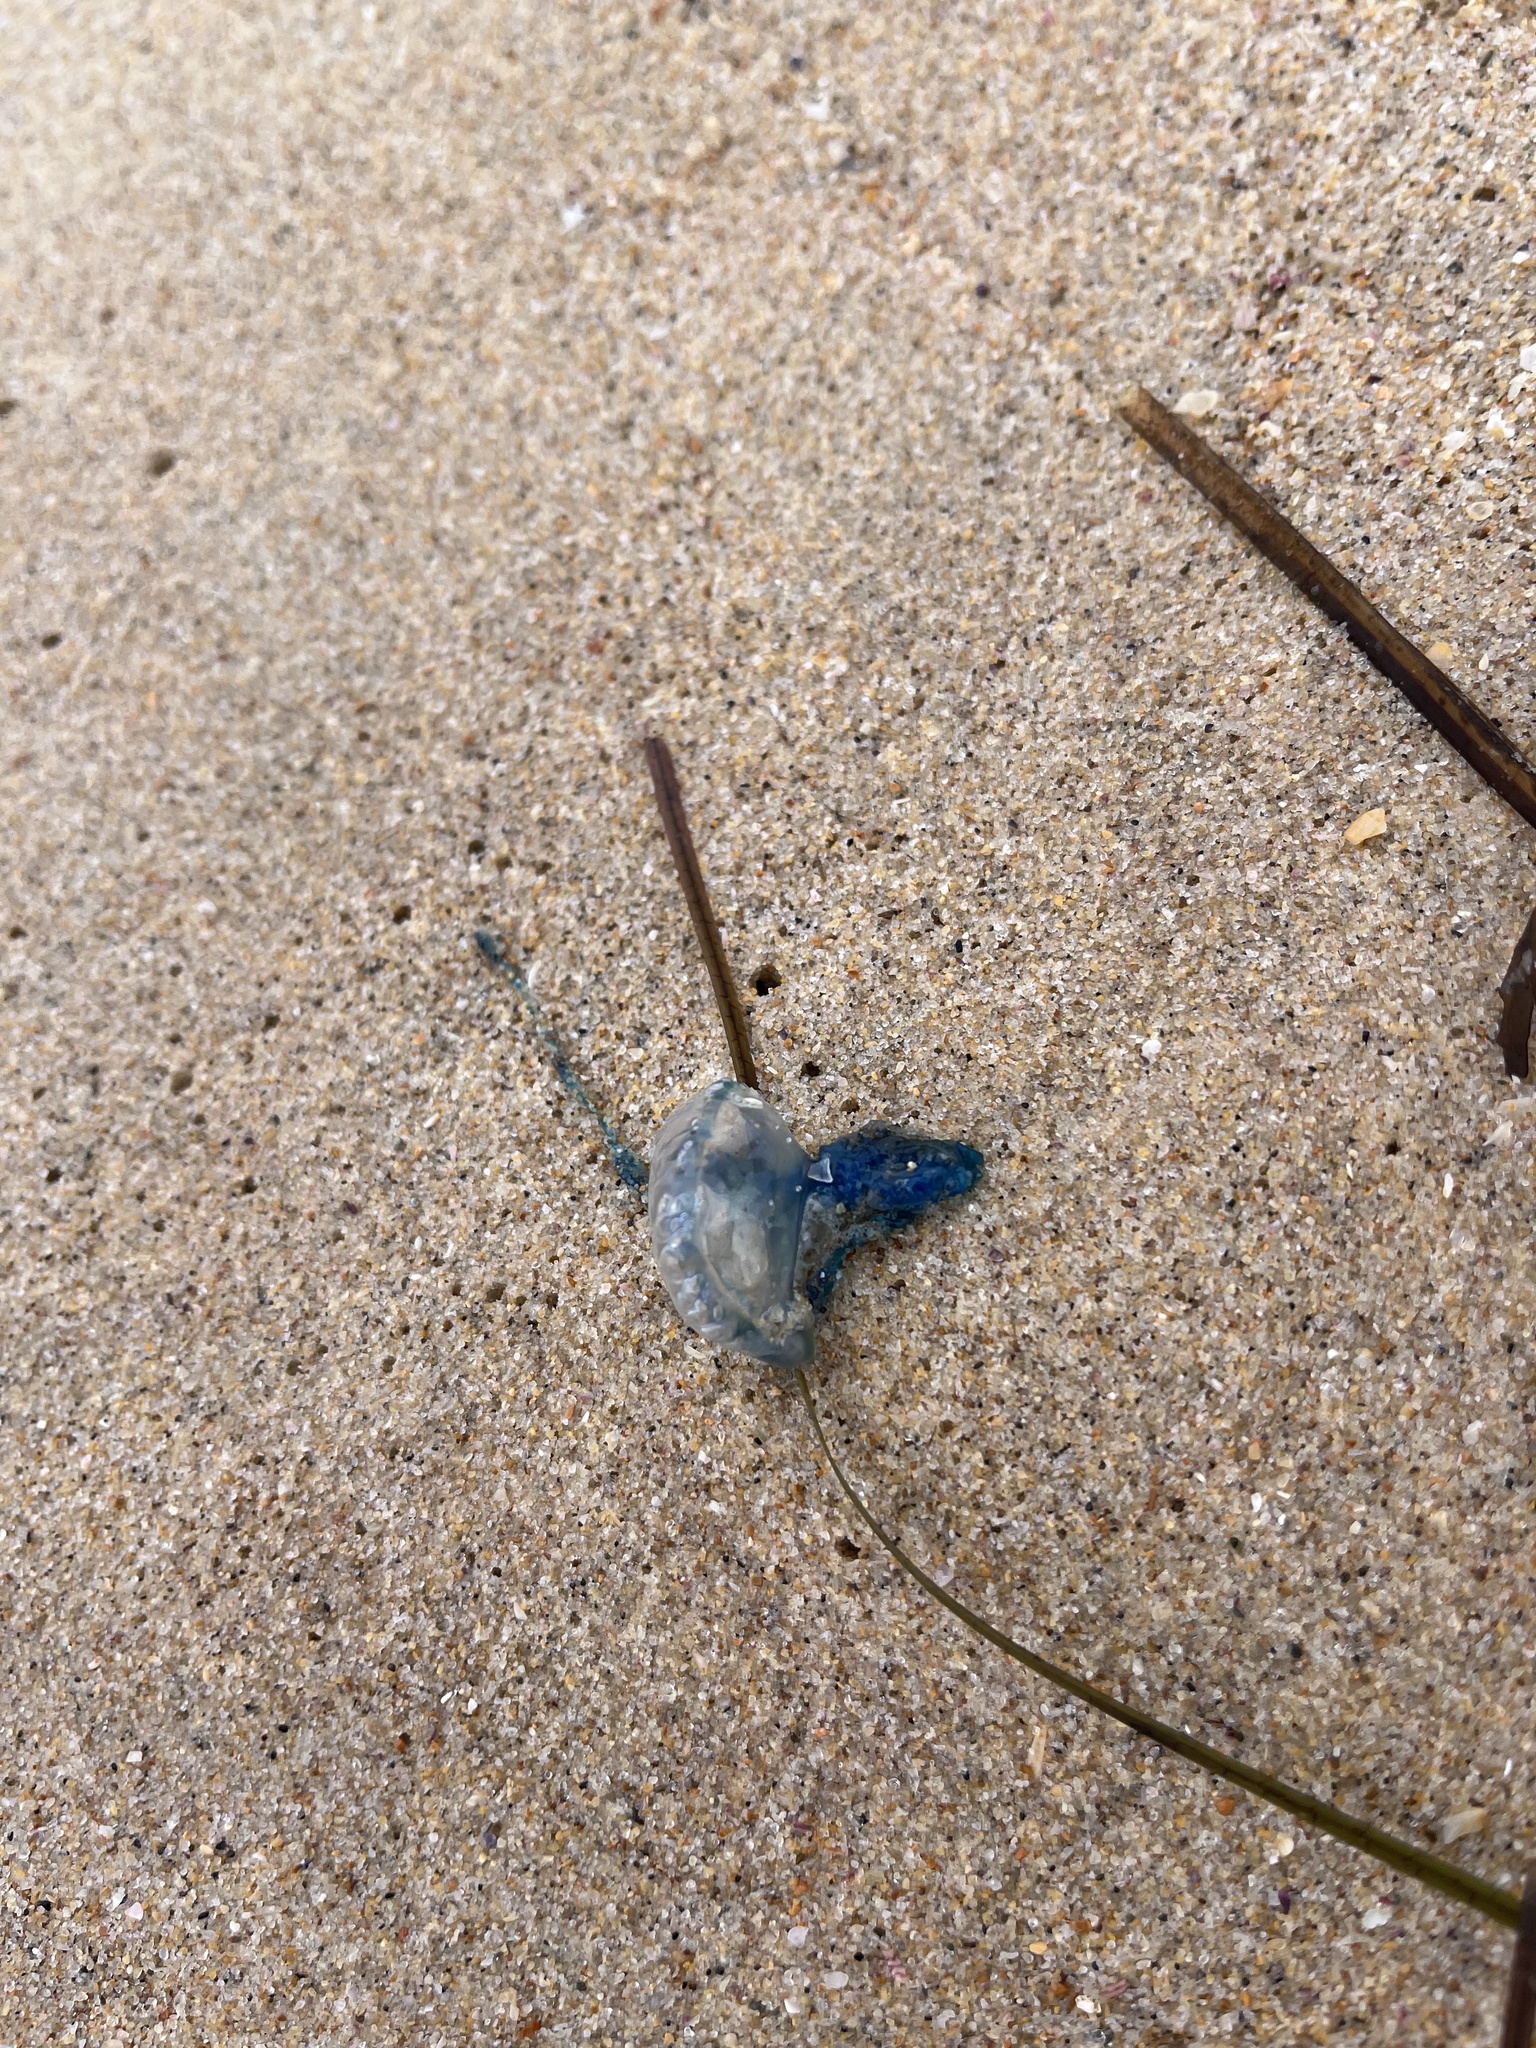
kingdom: Animalia
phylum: Cnidaria
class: Hydrozoa
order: Siphonophorae
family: Physaliidae
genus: Physalia
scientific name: Physalia physalis
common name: Portuguese man-of-war
